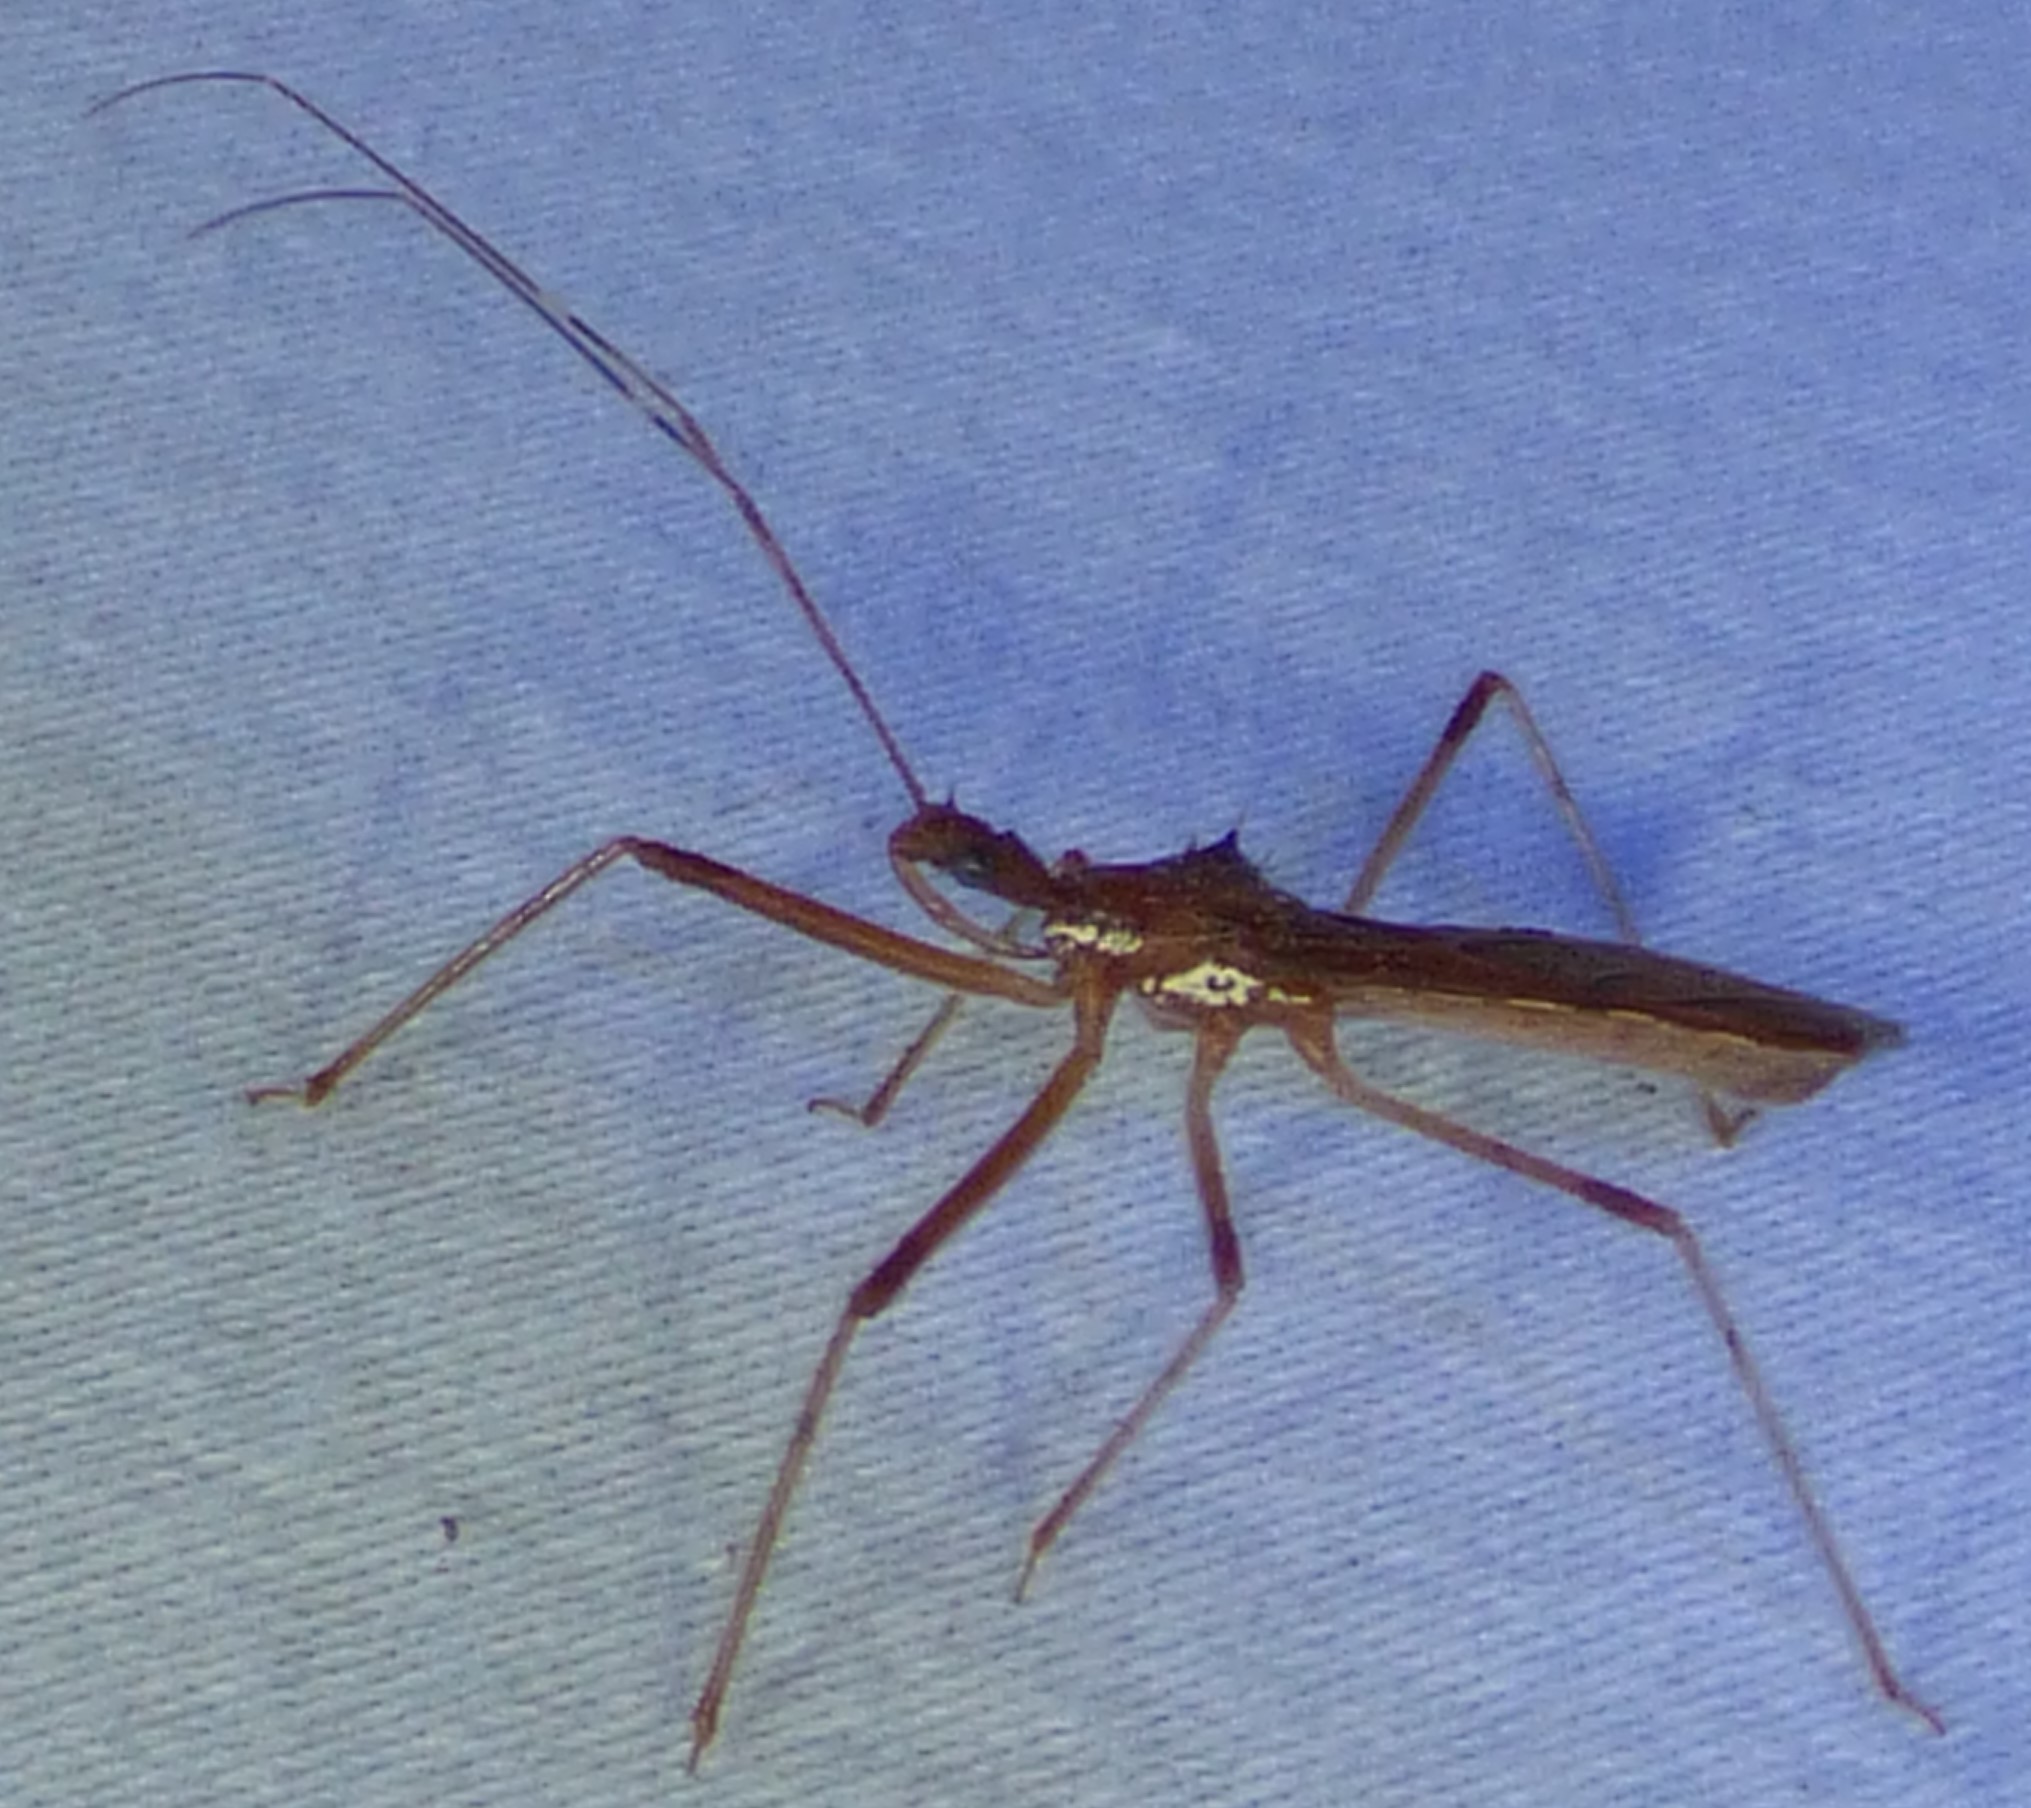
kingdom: Animalia
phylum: Arthropoda
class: Insecta
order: Hemiptera
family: Reduviidae
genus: Rocconota
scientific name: Rocconota annulicornis
